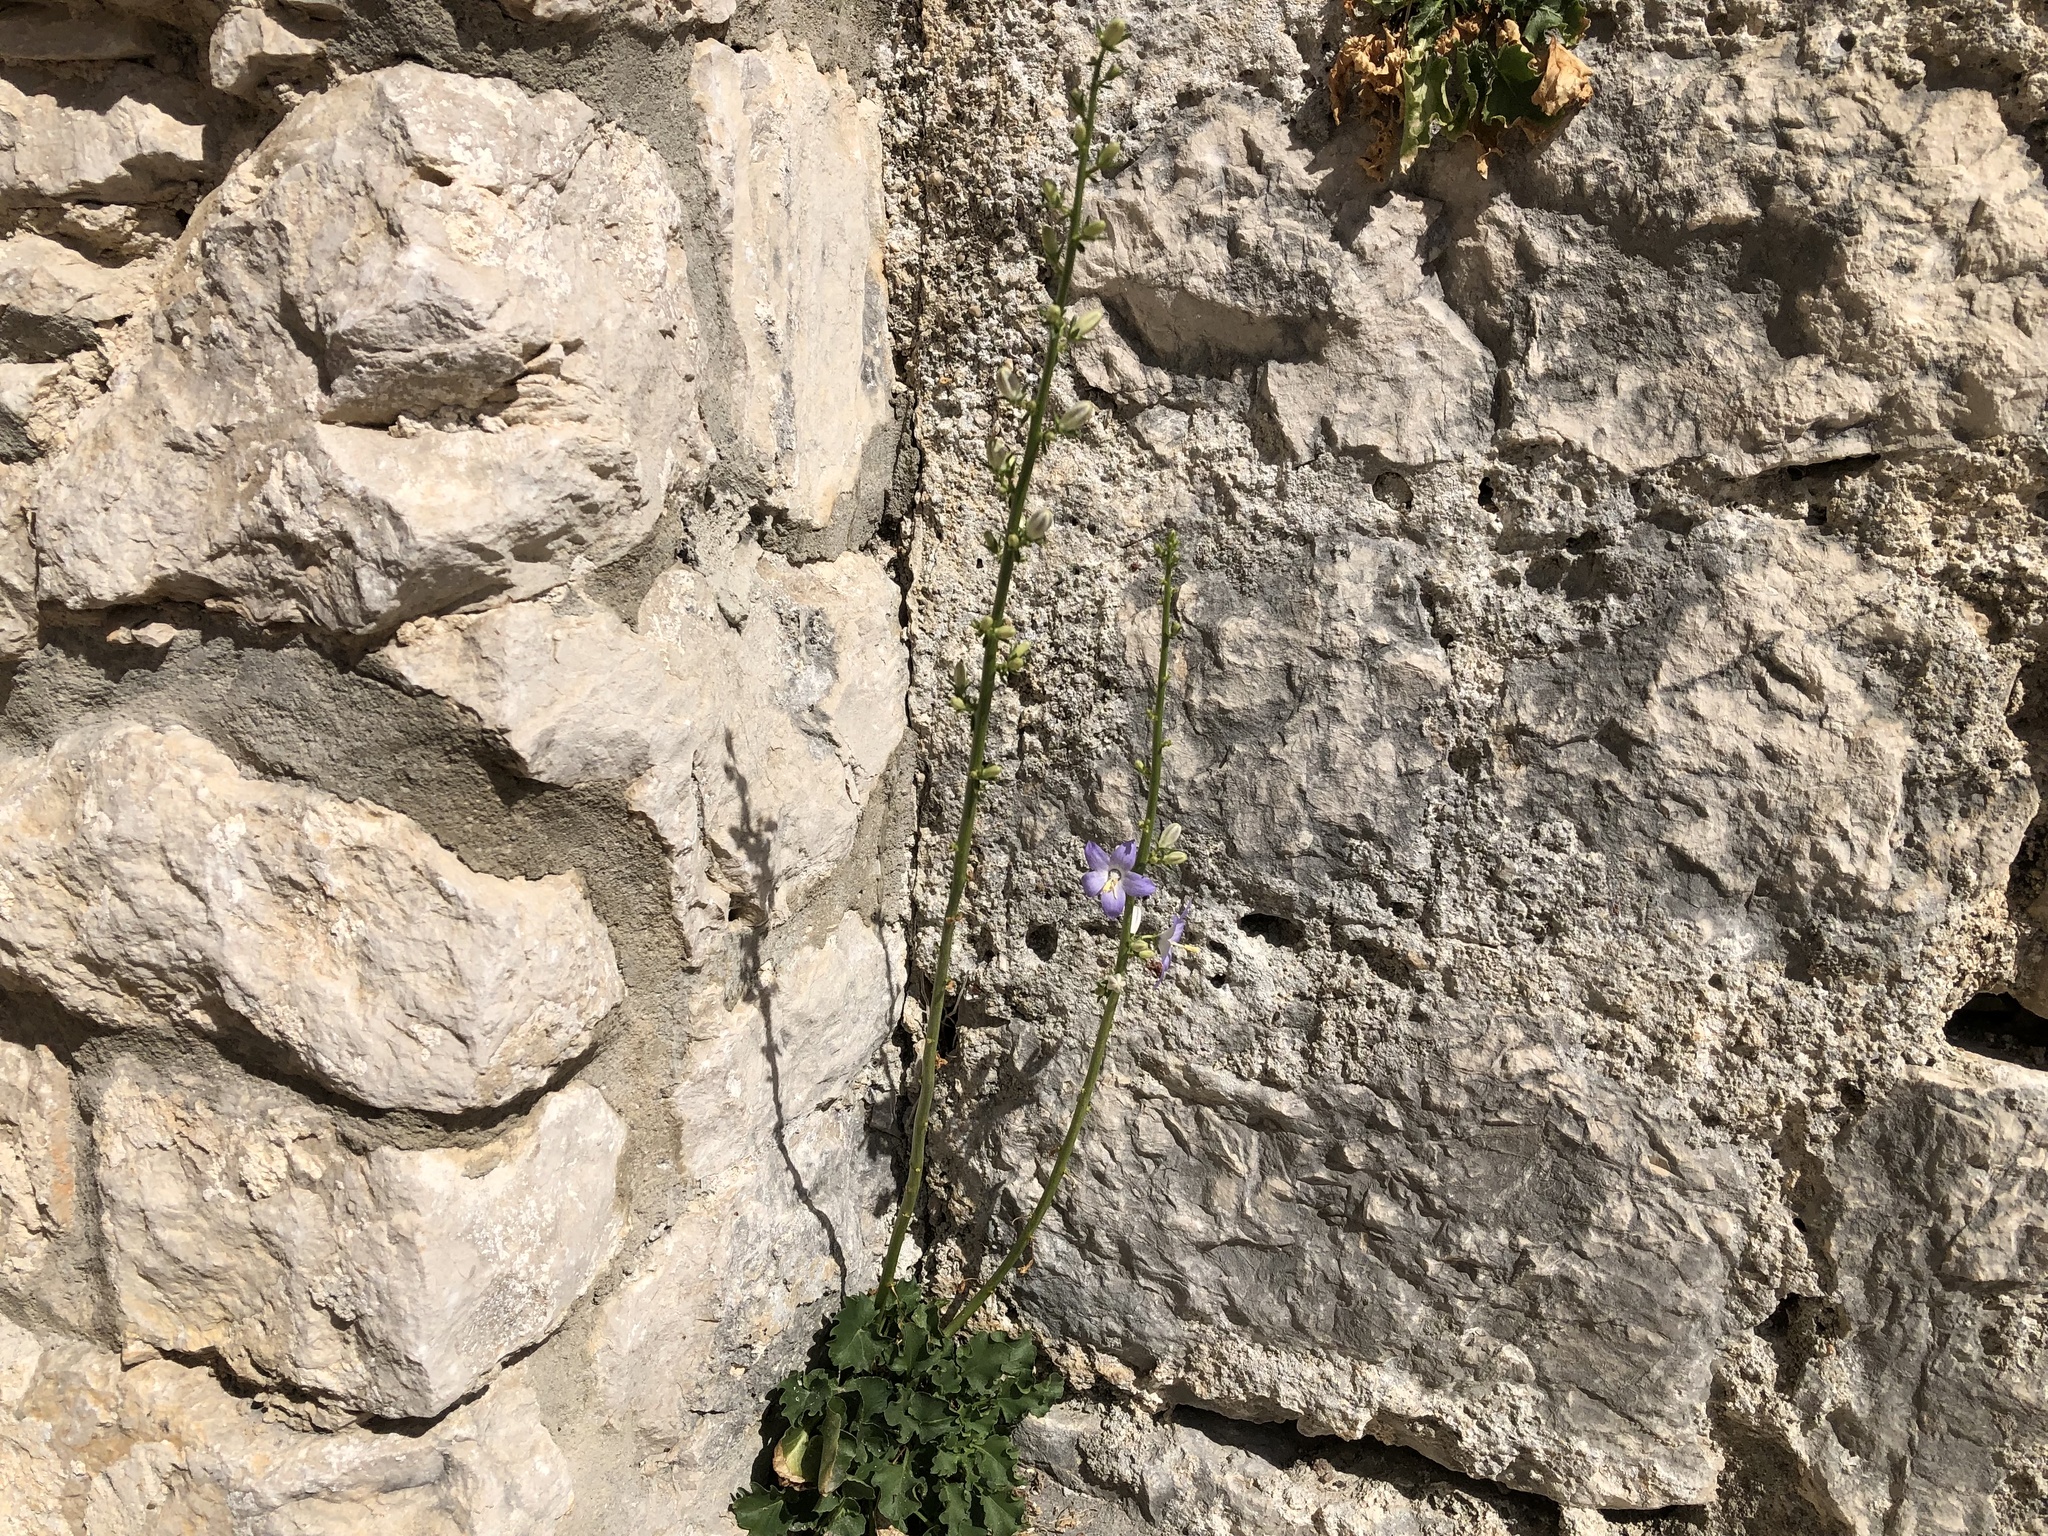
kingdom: Plantae
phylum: Tracheophyta
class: Magnoliopsida
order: Asterales
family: Campanulaceae
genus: Campanula
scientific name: Campanula pyramidalis
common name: Chimney bellflower
